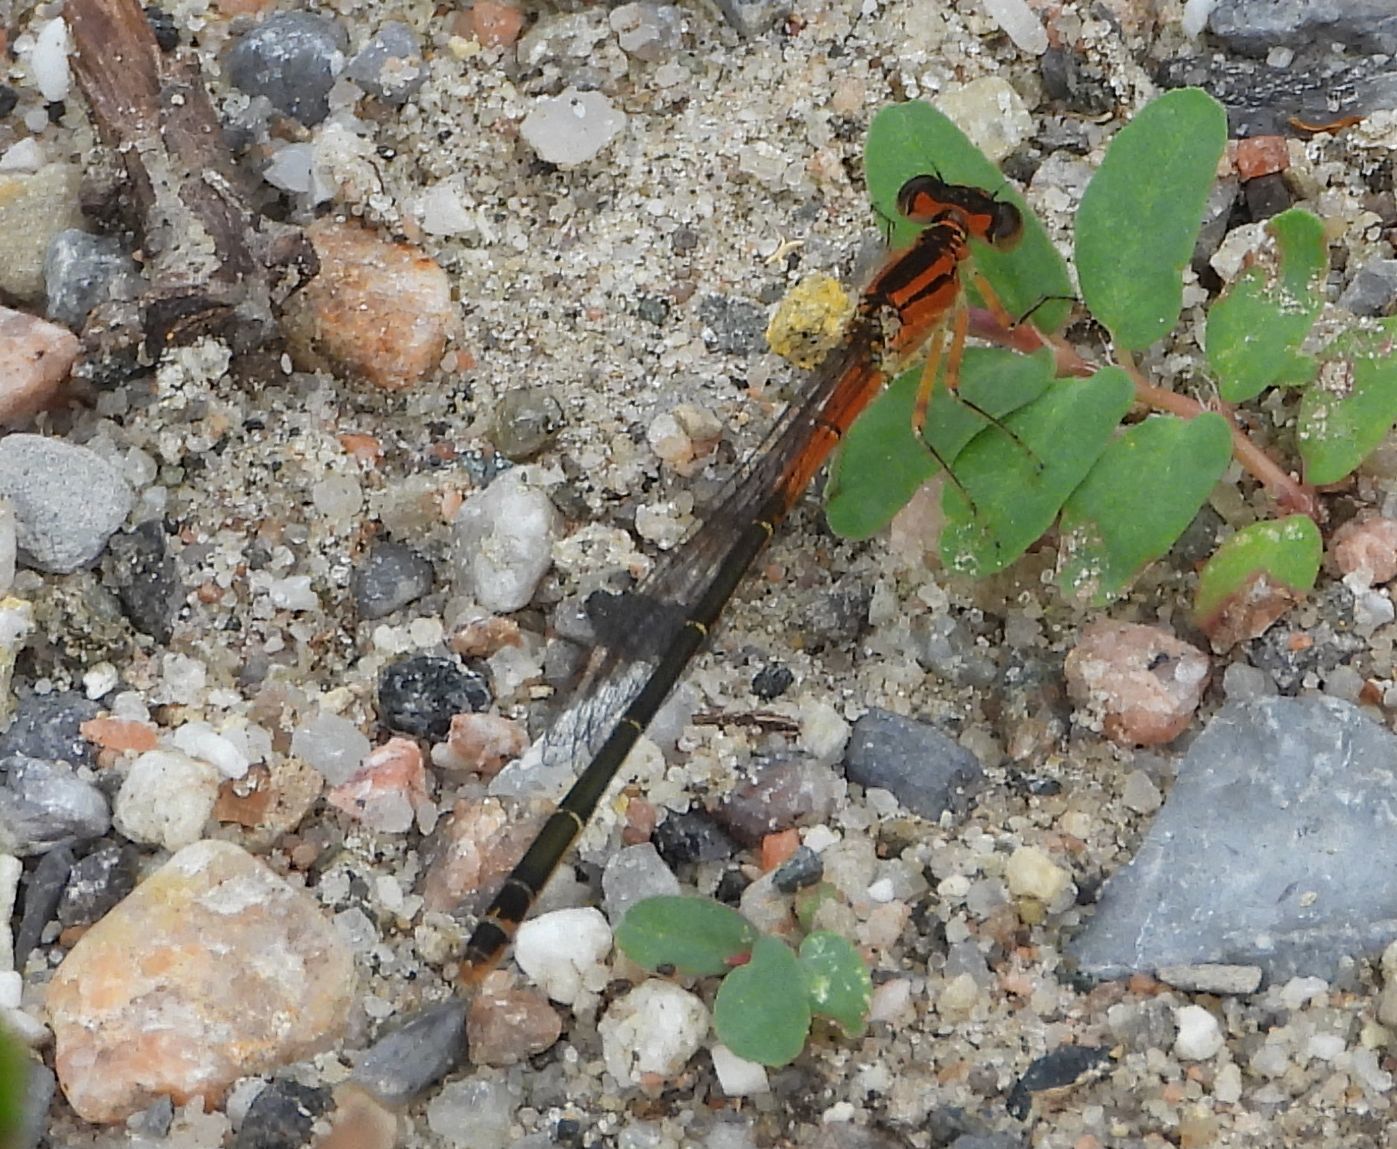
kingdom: Animalia
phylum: Arthropoda
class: Insecta
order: Odonata
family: Coenagrionidae
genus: Ischnura
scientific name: Ischnura verticalis
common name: Eastern forktail
